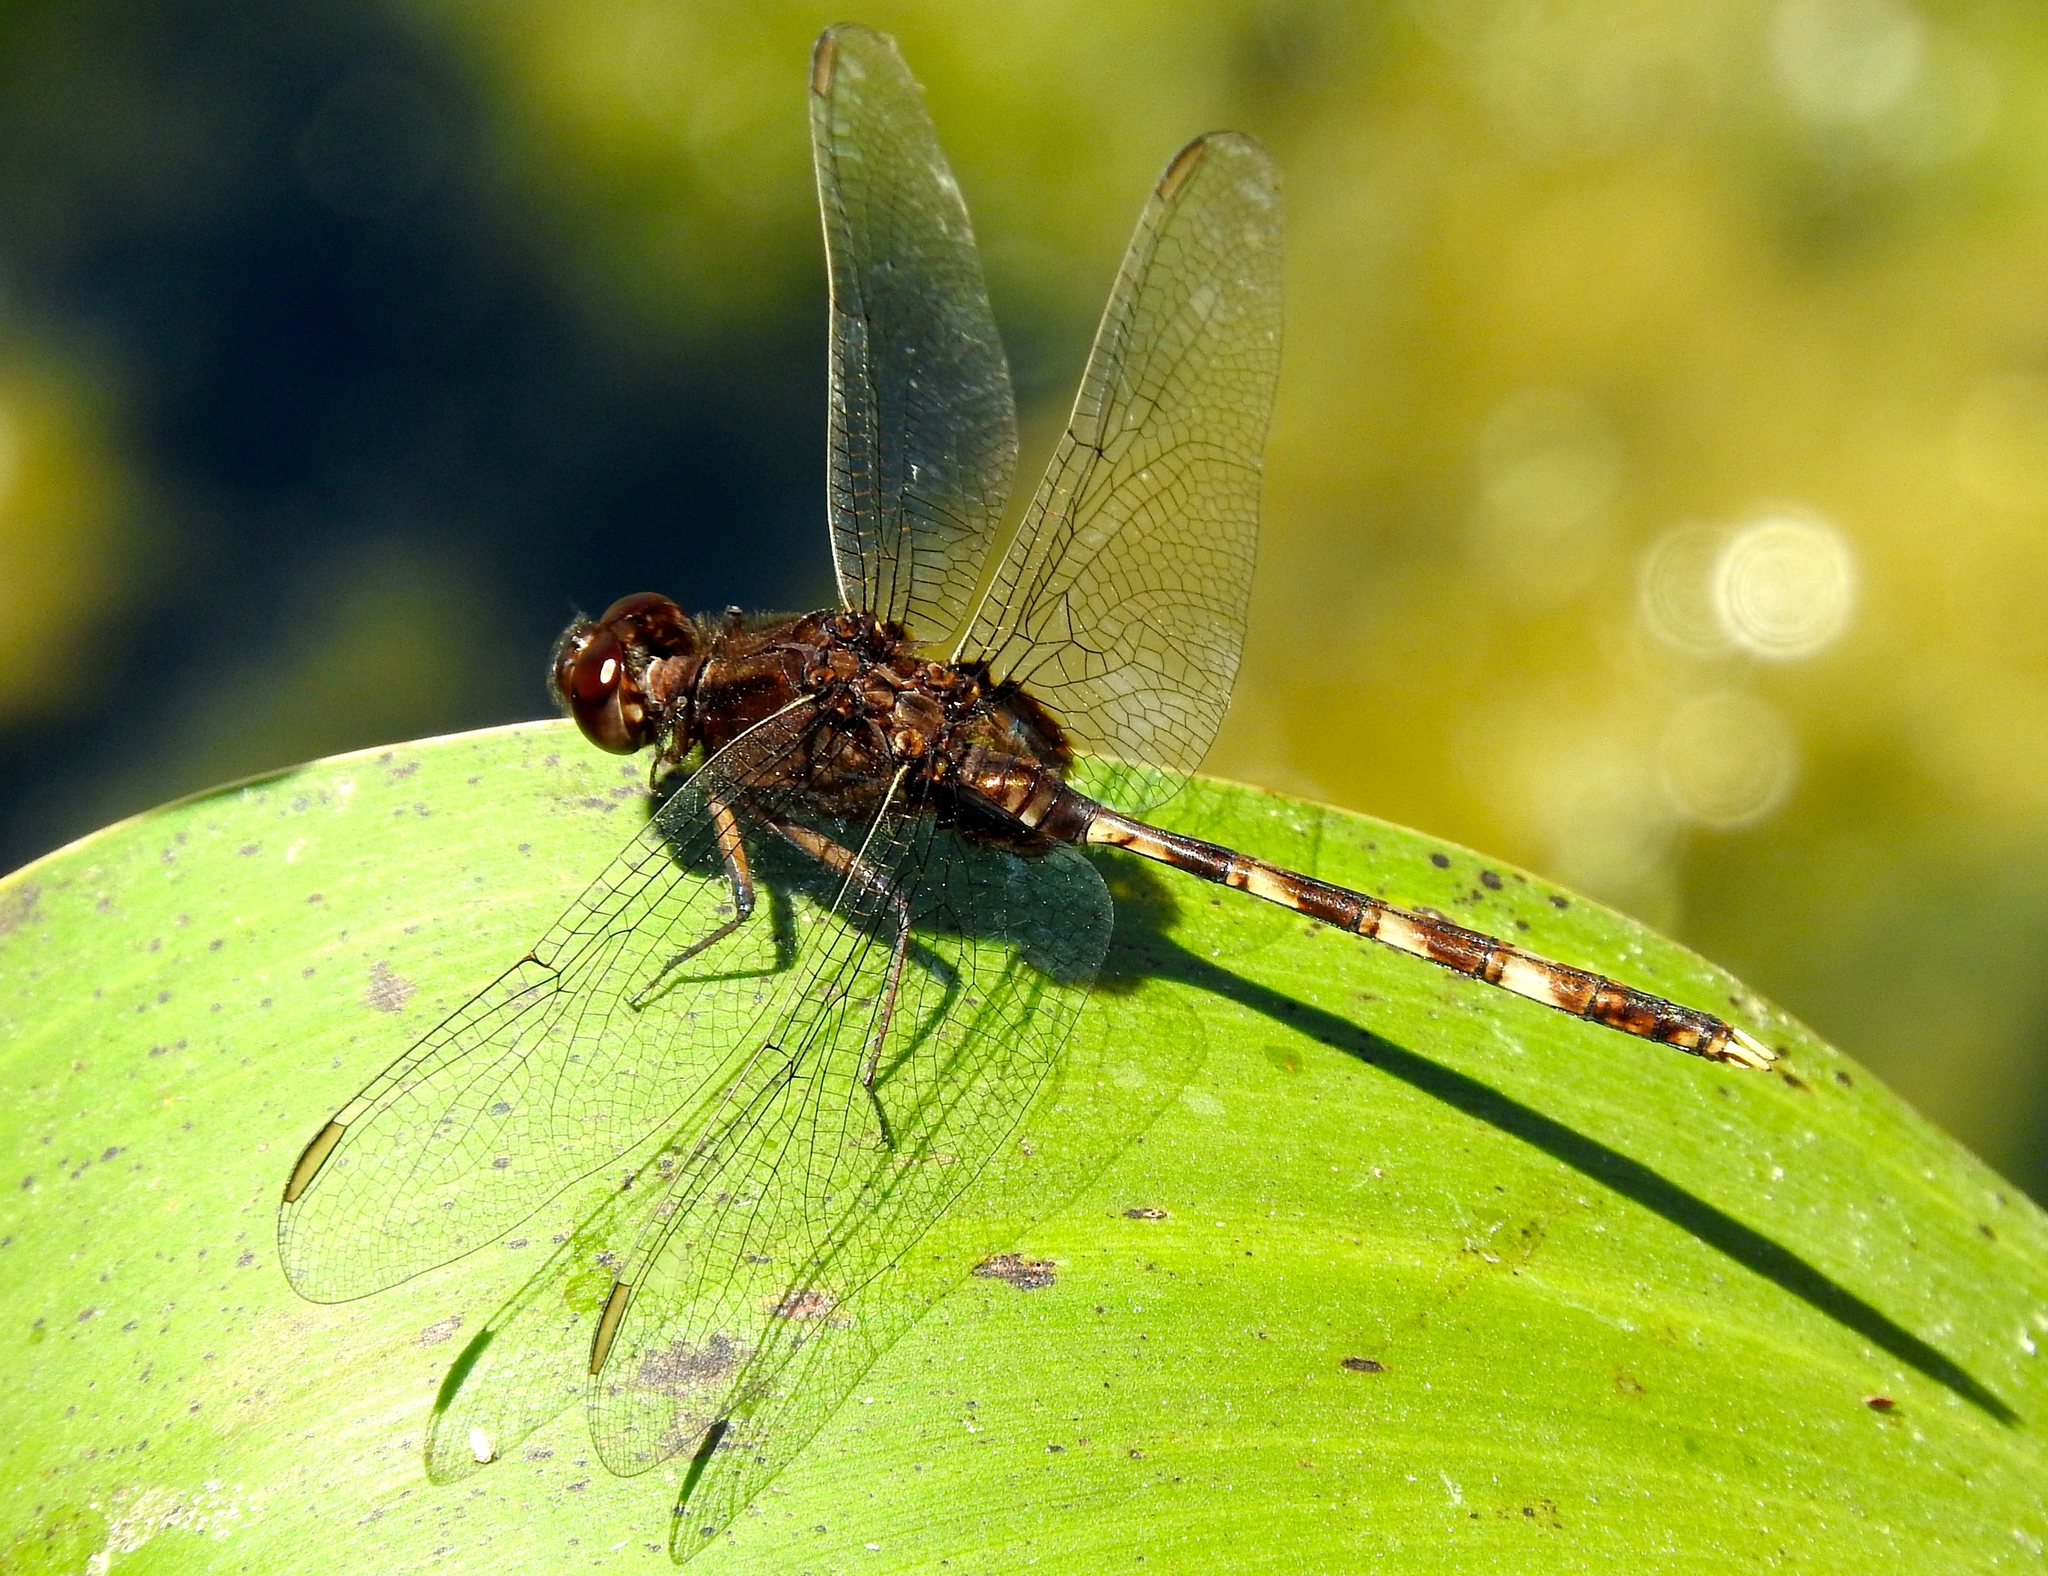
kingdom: Animalia
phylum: Arthropoda
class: Insecta
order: Odonata
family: Libellulidae
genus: Erythemis
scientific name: Erythemis plebeja
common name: Pin-tailed pondhawk
